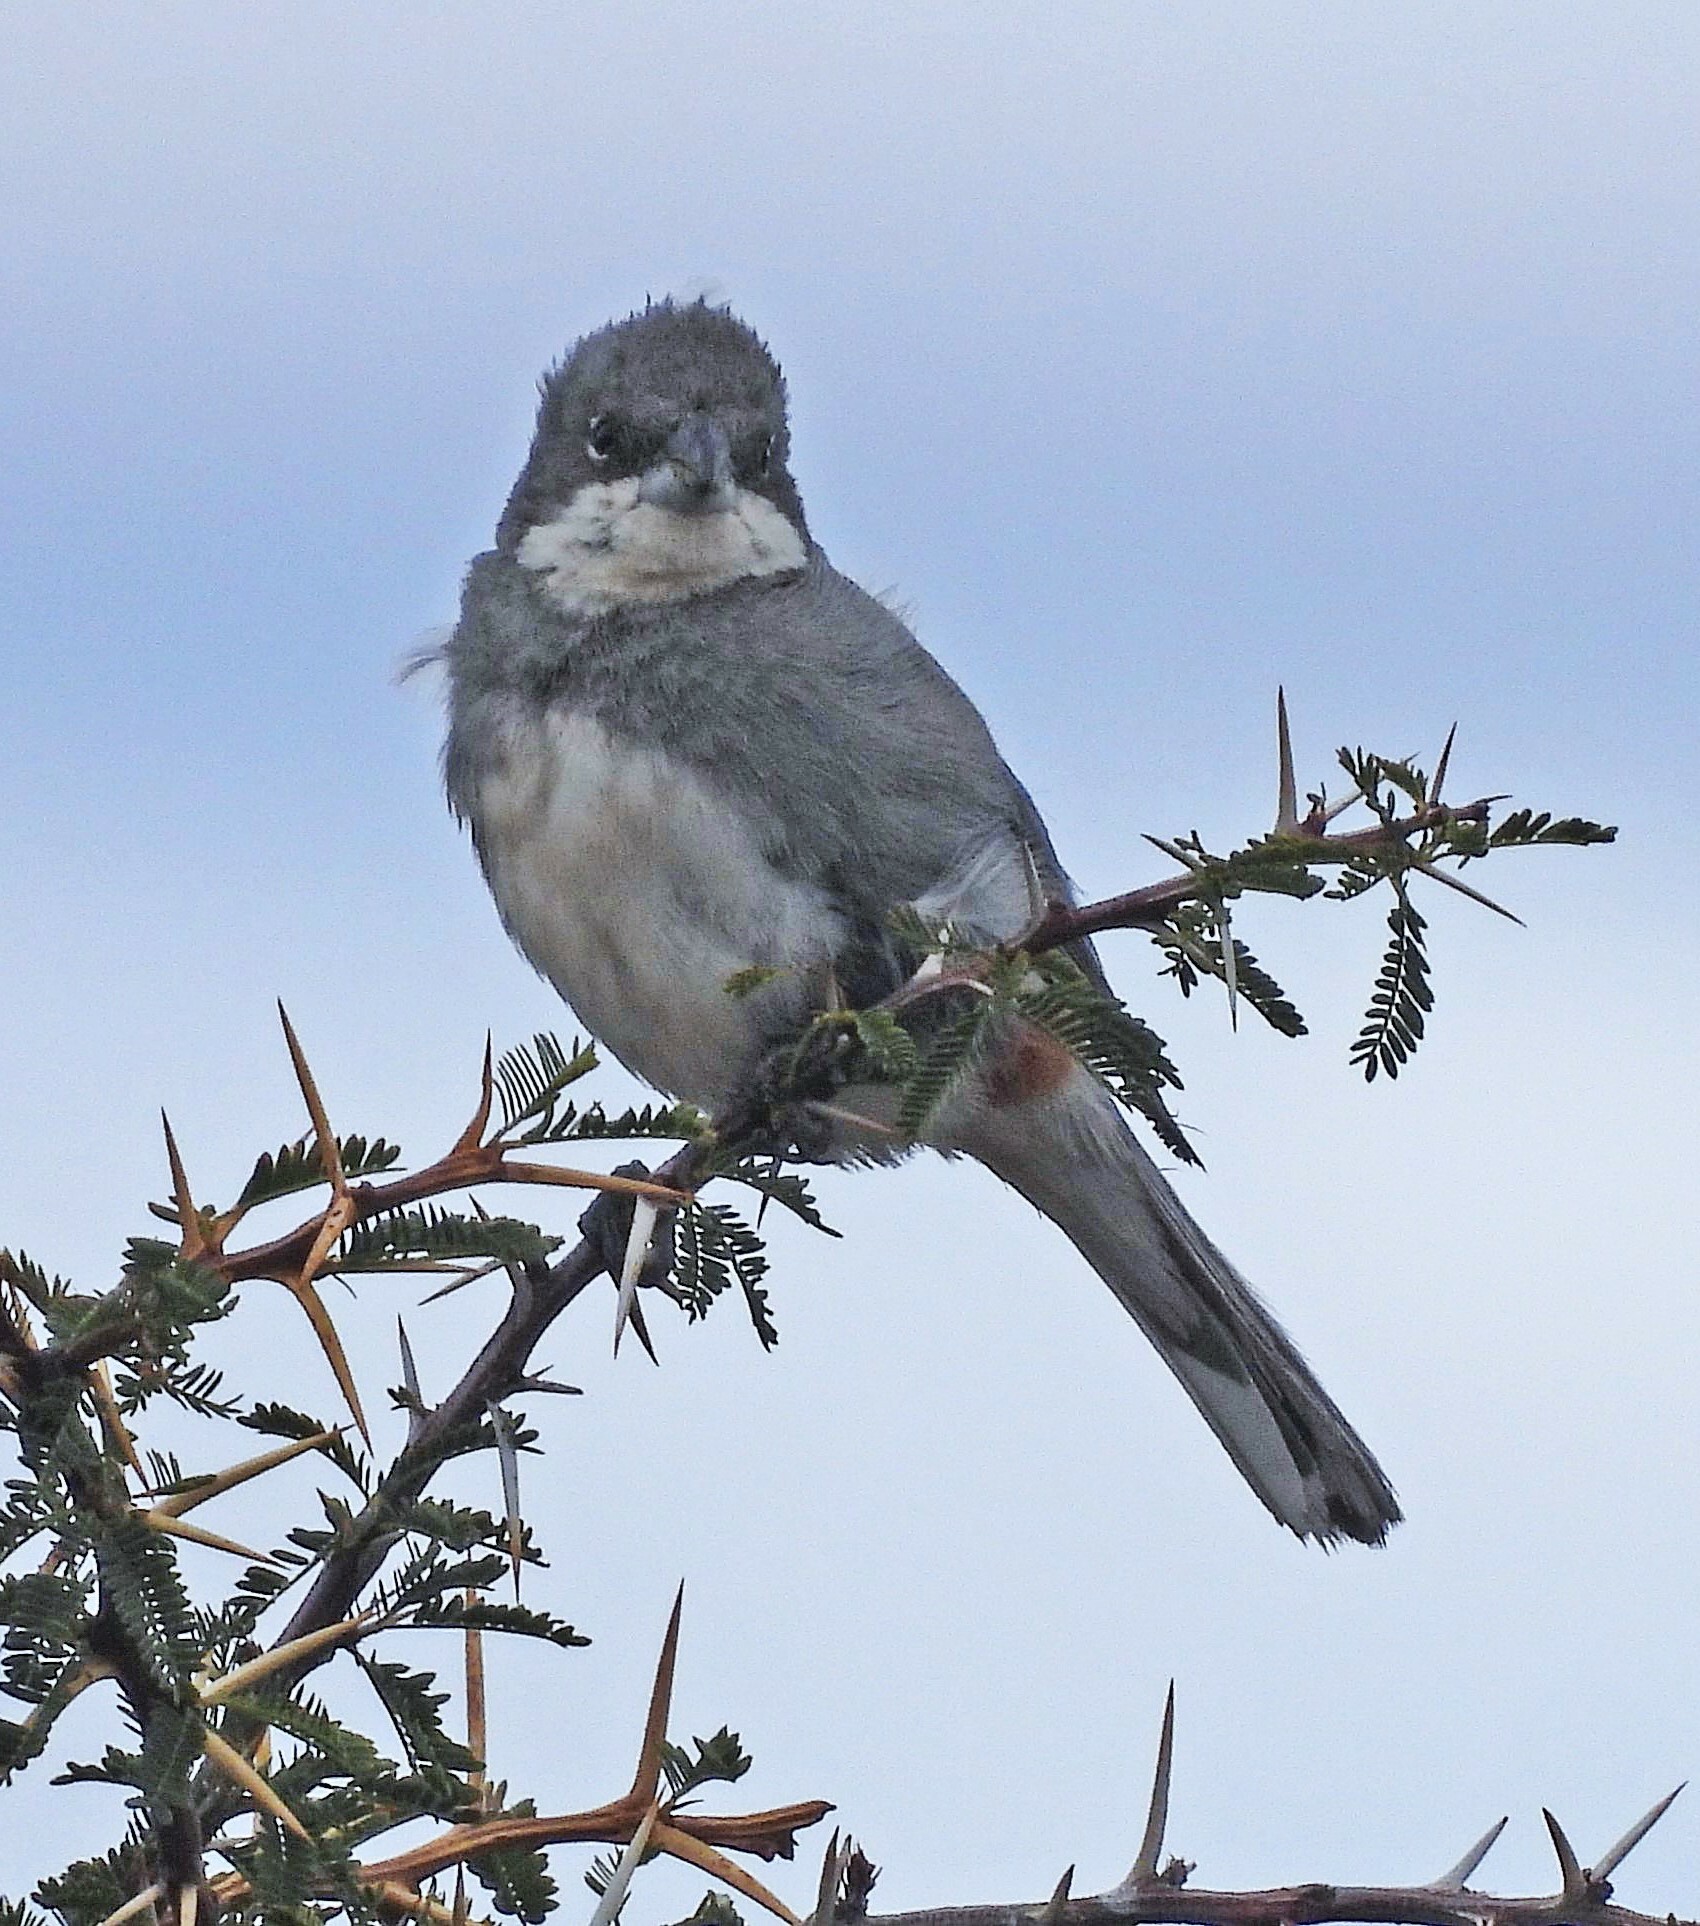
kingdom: Animalia
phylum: Chordata
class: Aves
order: Passeriformes
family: Thraupidae
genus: Diuca
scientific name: Diuca diuca
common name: Common diuca finch
